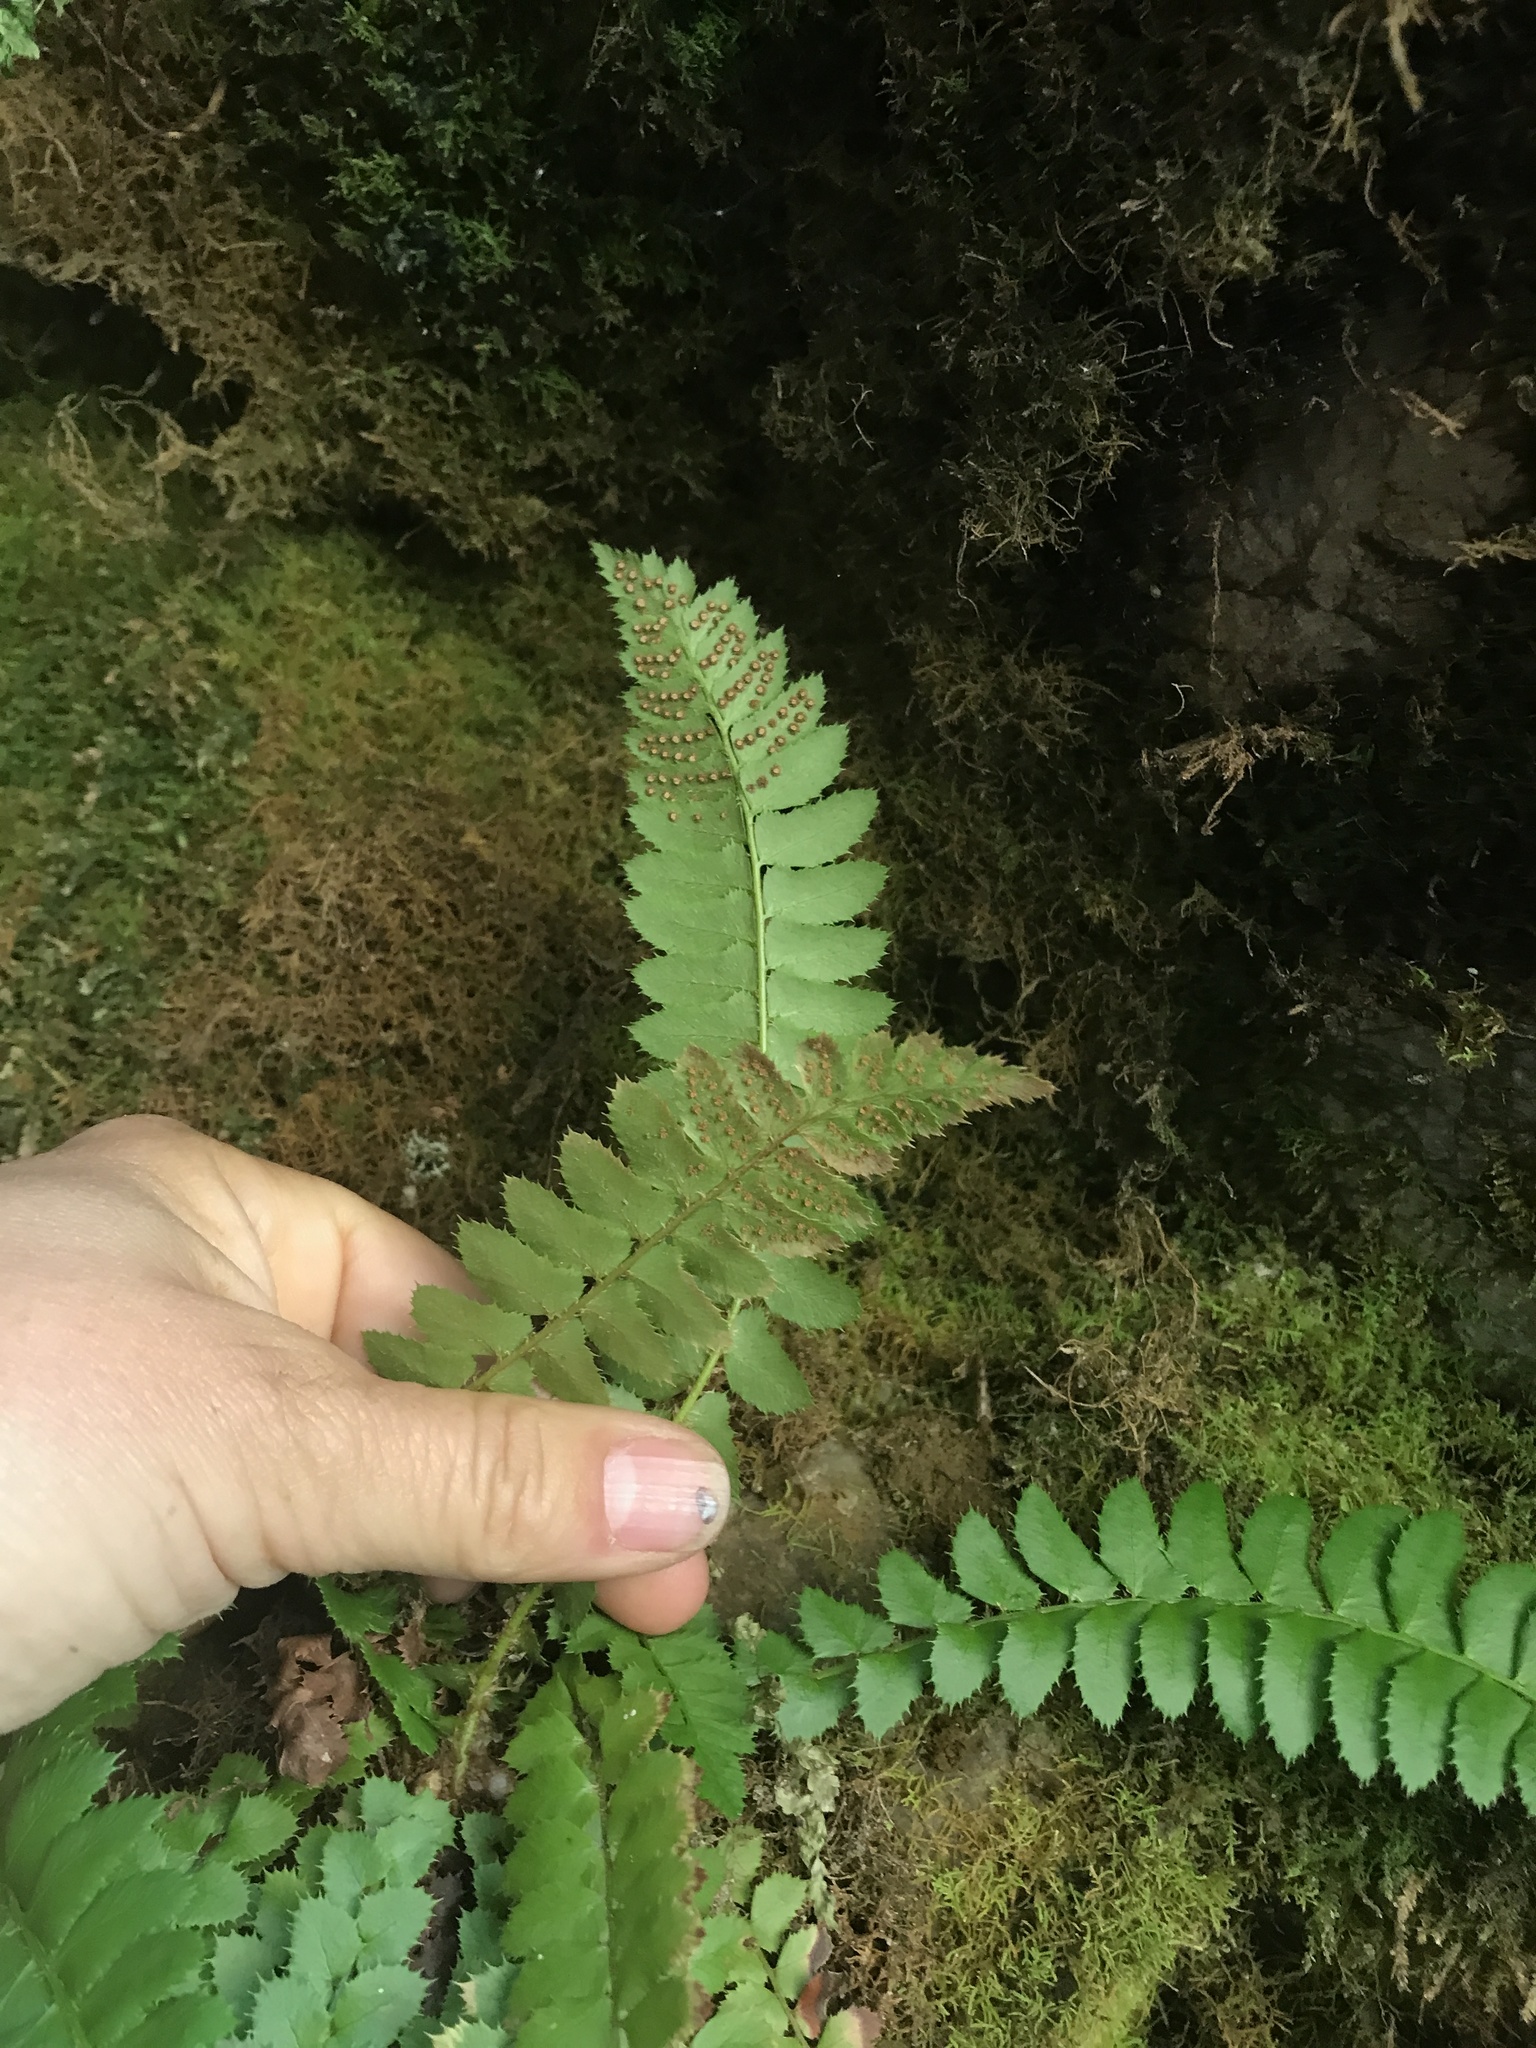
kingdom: Plantae
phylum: Tracheophyta
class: Polypodiopsida
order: Polypodiales
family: Dryopteridaceae
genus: Polystichum
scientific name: Polystichum lonchitis
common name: Holly fern
